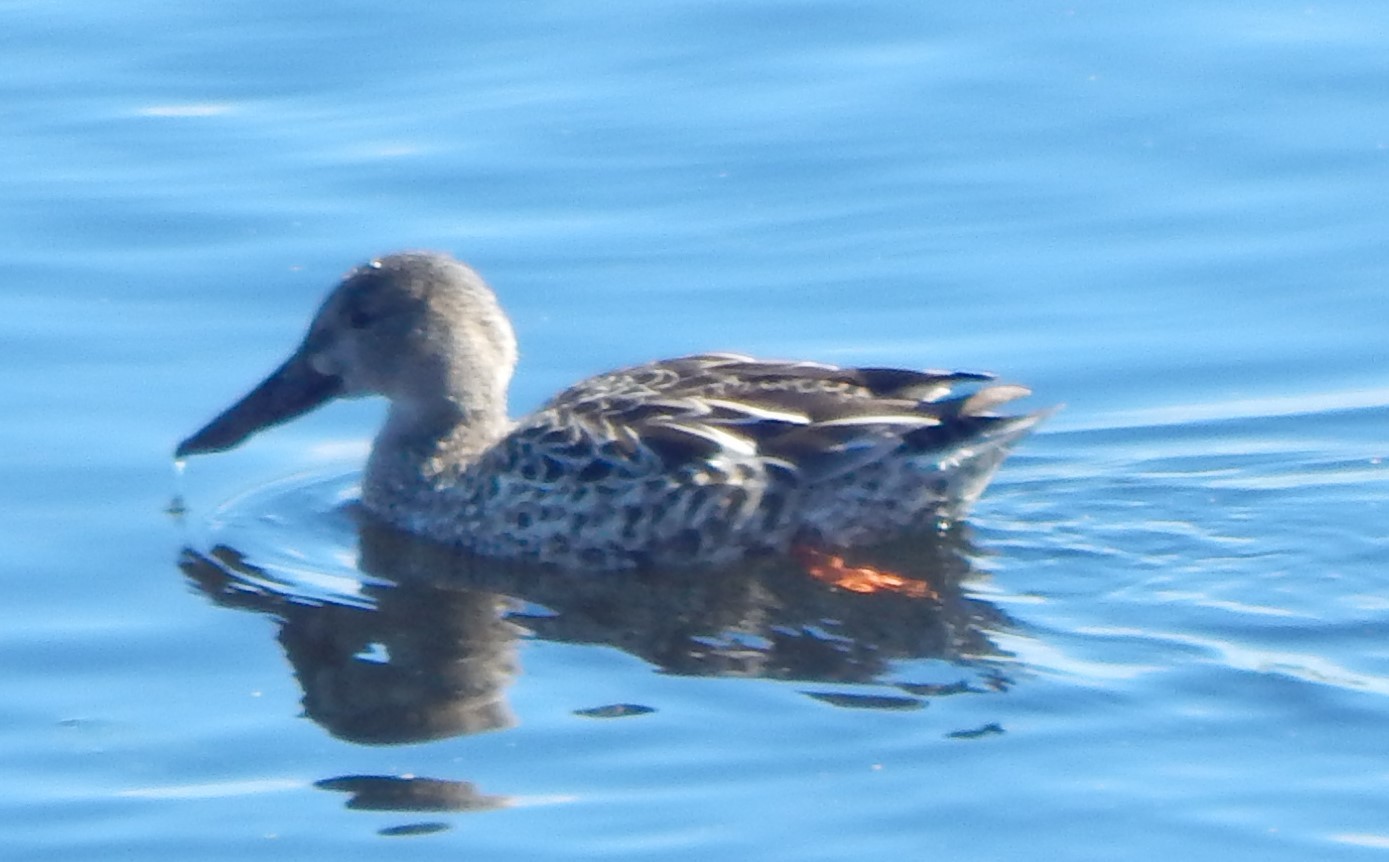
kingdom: Animalia
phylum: Chordata
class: Aves
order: Anseriformes
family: Anatidae
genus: Spatula
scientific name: Spatula clypeata
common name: Northern shoveler
